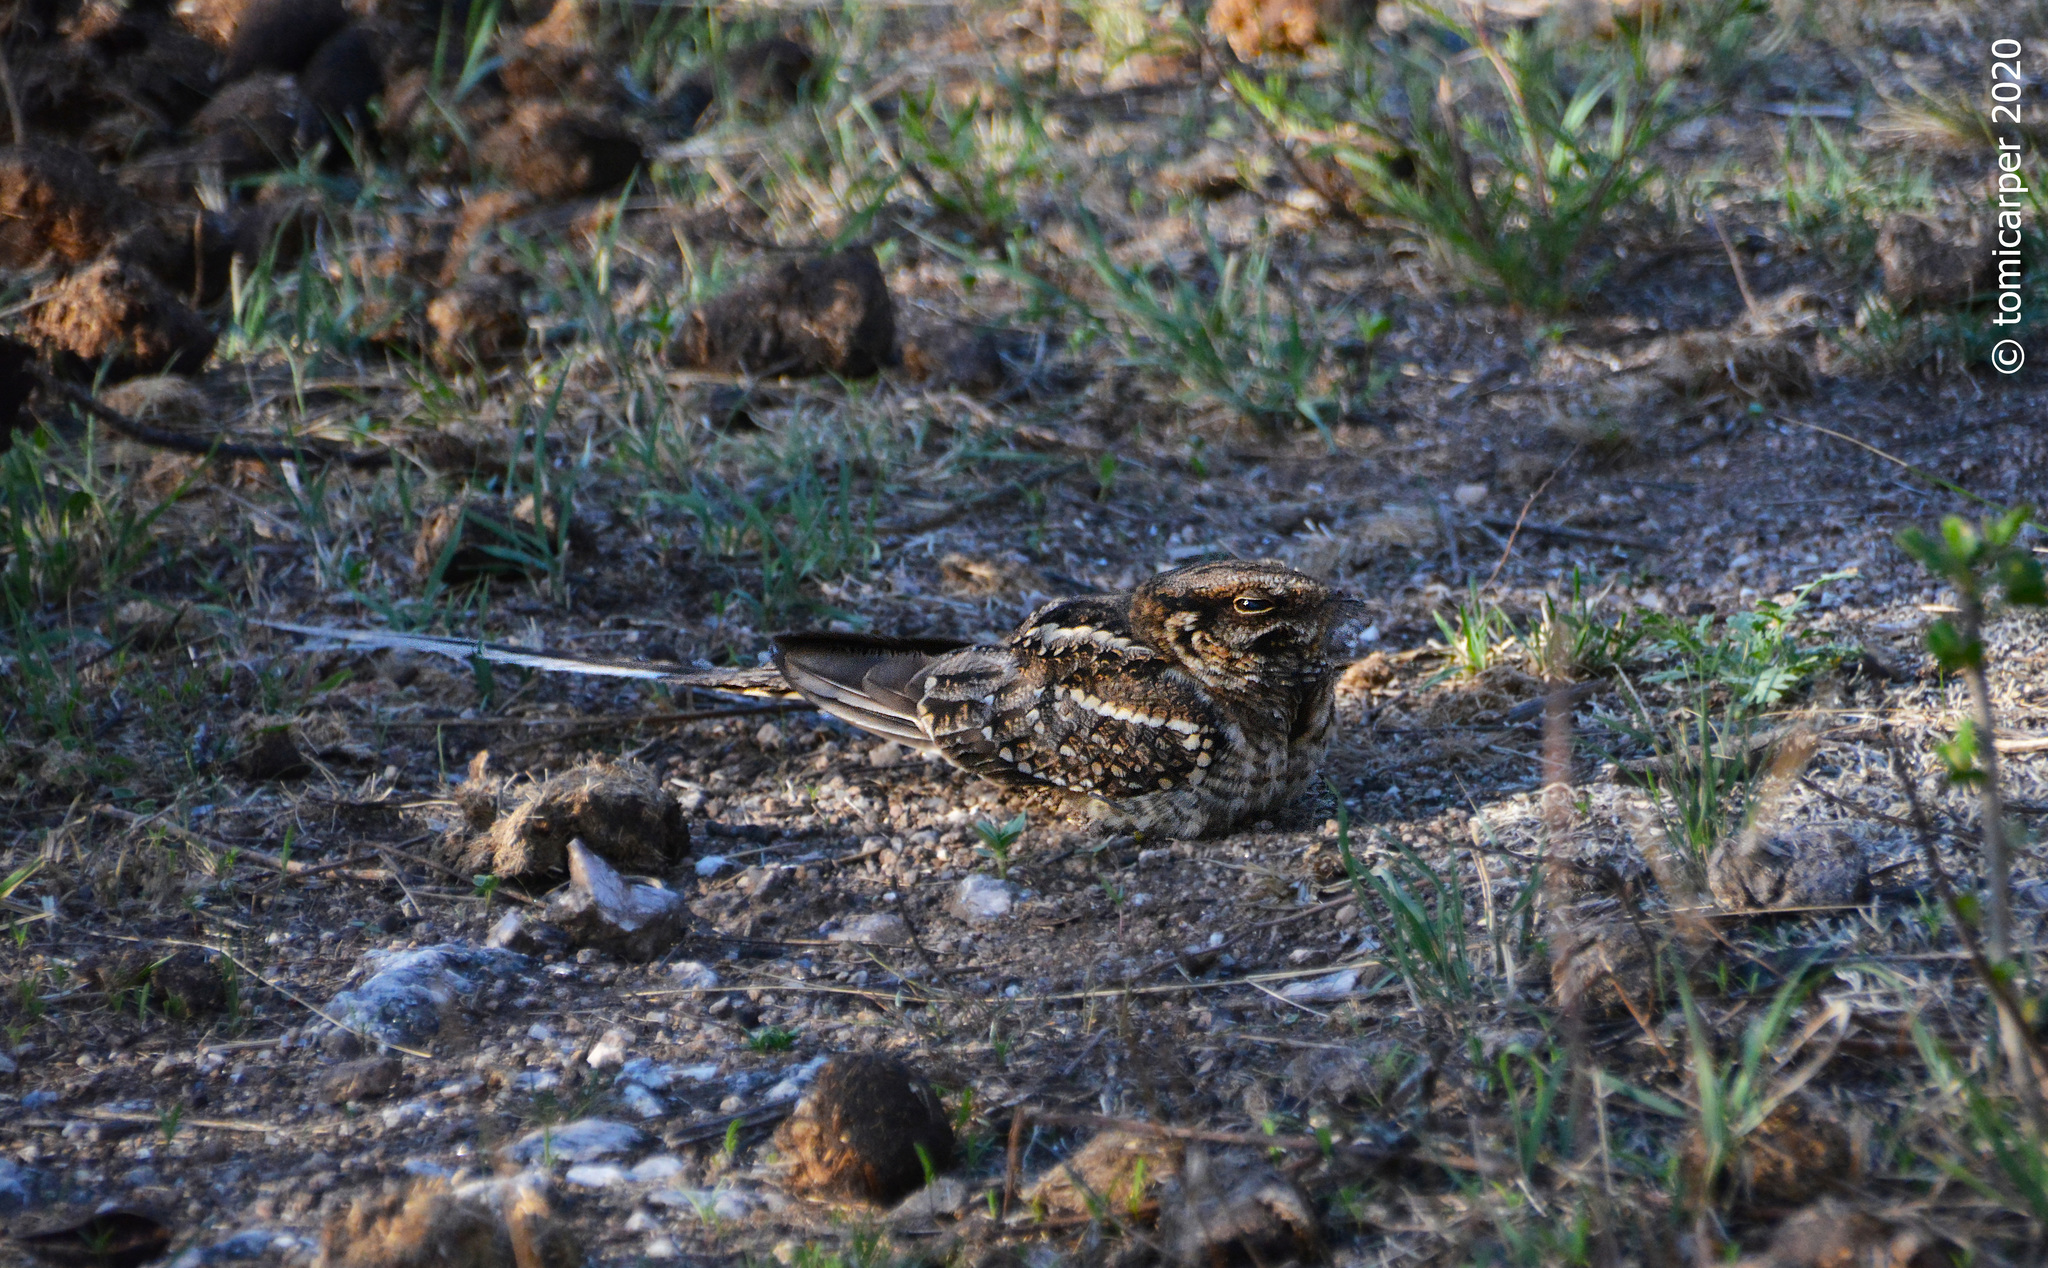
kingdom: Animalia
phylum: Chordata
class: Aves
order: Caprimulgiformes
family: Caprimulgidae
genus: Hydropsalis
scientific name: Hydropsalis torquata
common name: Scissor-tailed nightjar
